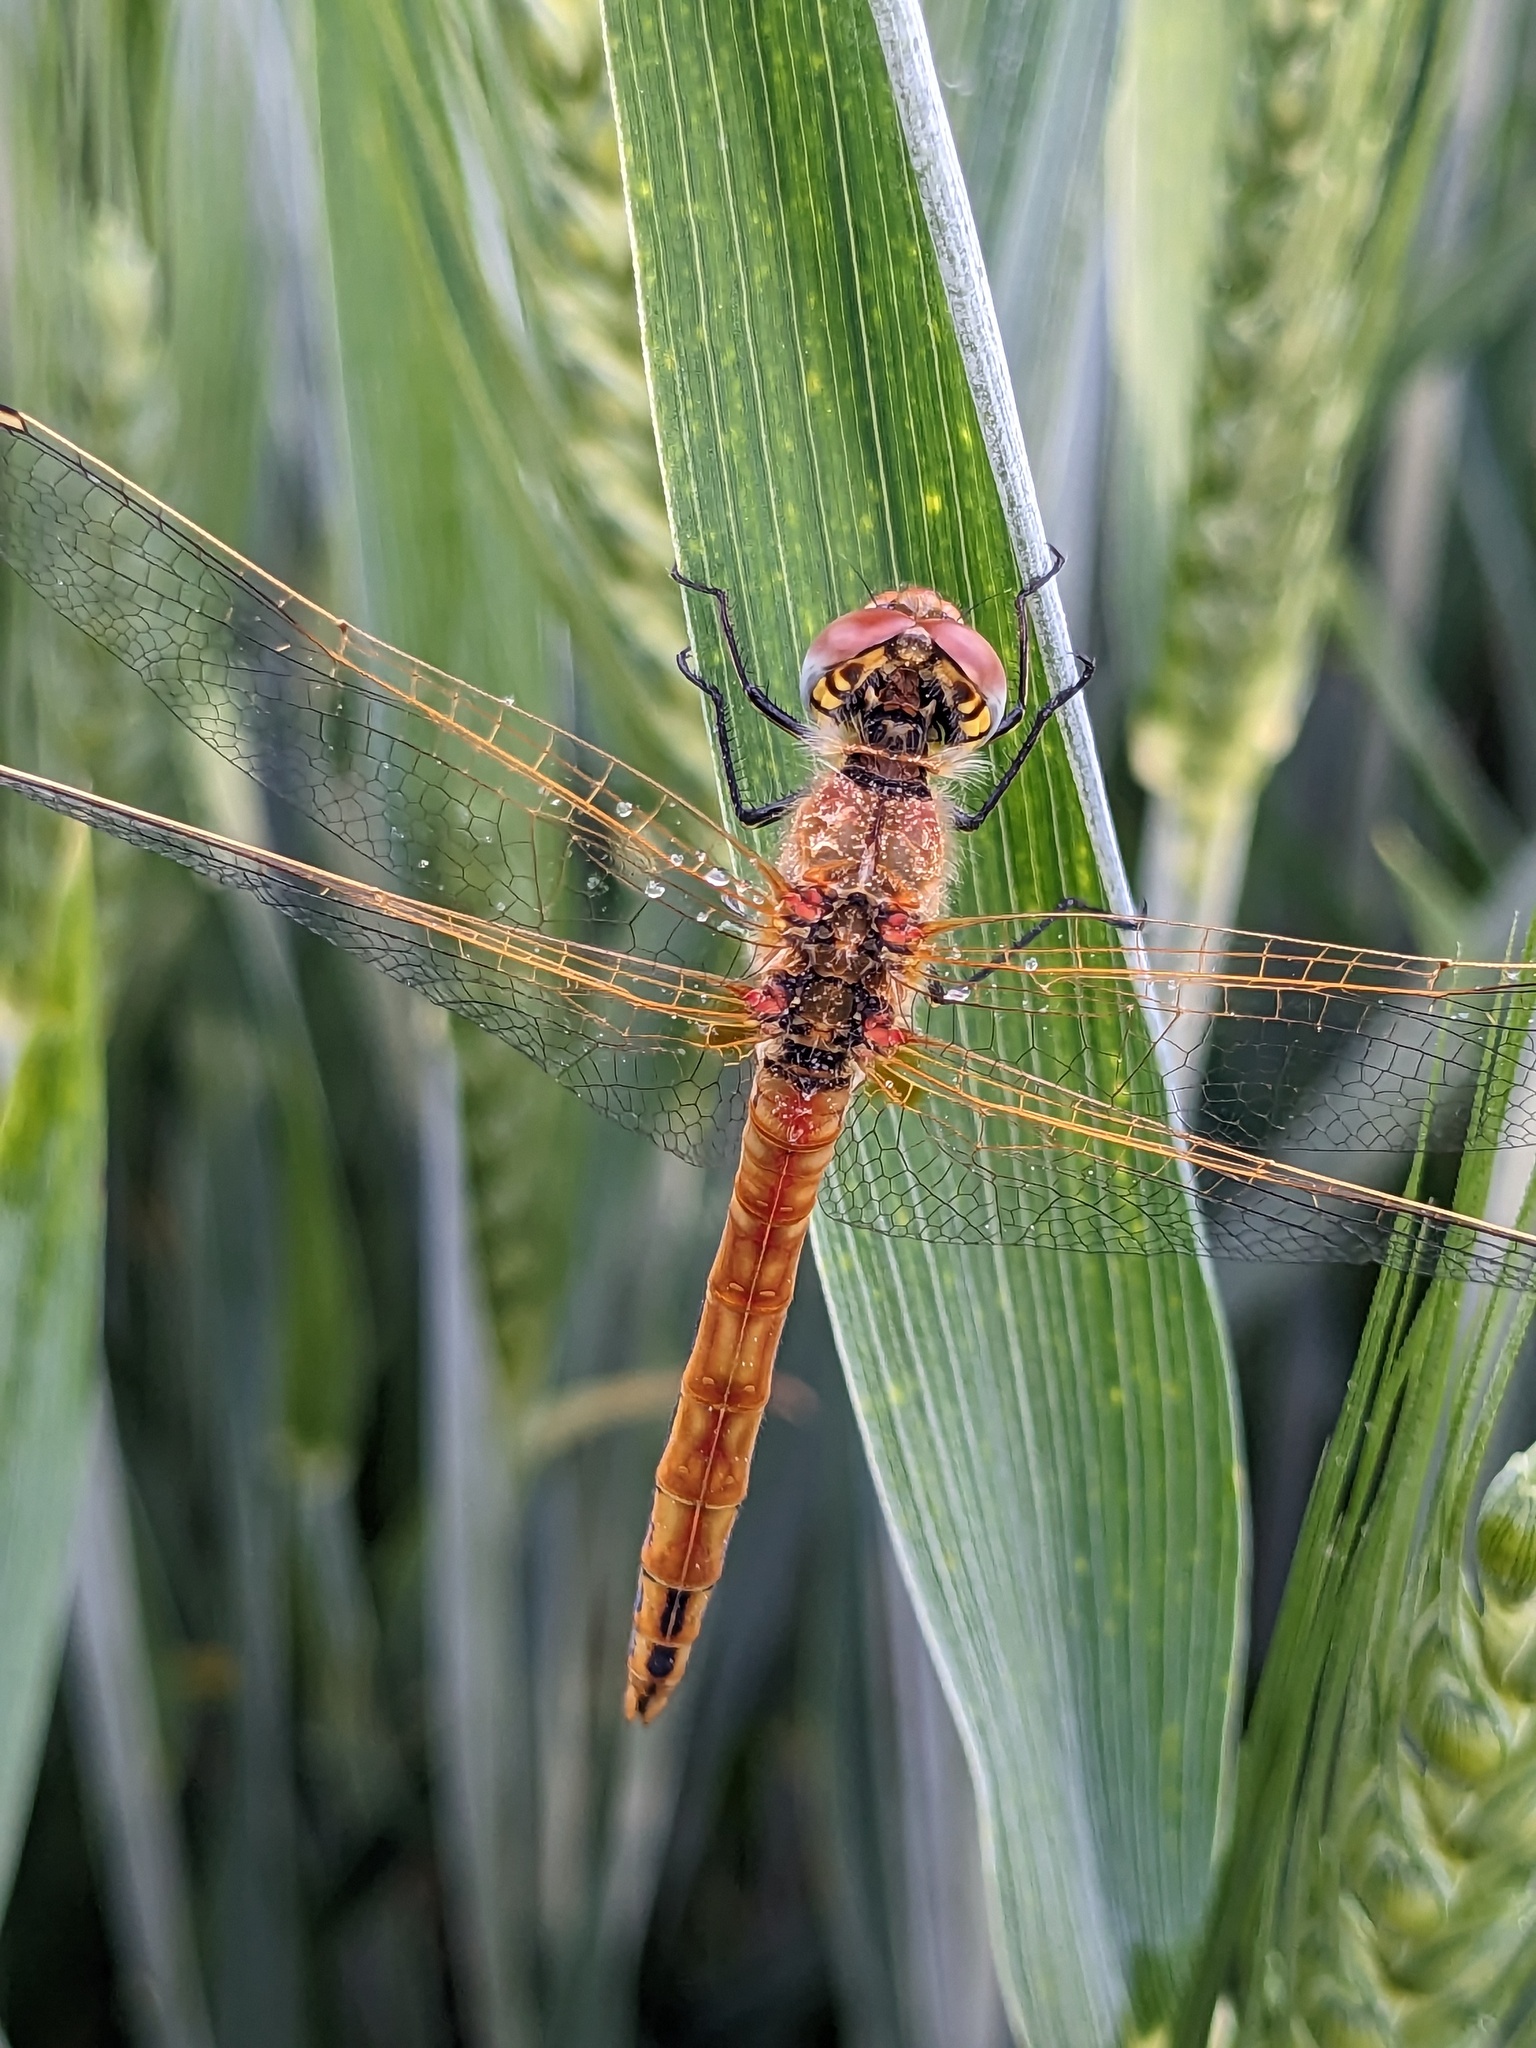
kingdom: Animalia
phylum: Arthropoda
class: Insecta
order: Odonata
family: Libellulidae
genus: Sympetrum
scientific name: Sympetrum fonscolombii
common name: Red-veined darter
